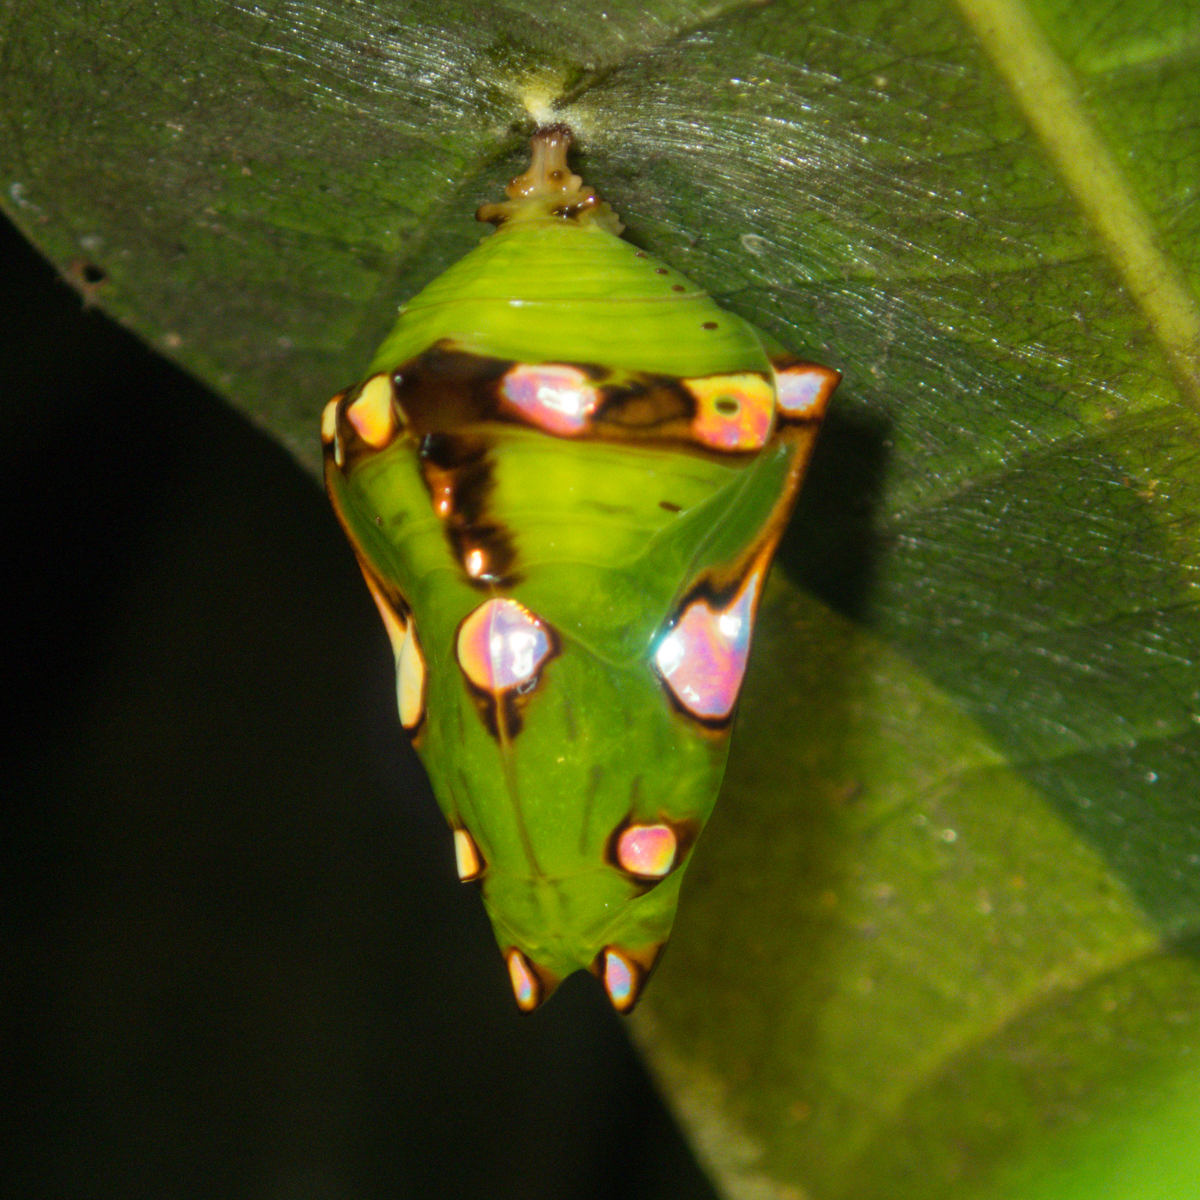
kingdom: Animalia
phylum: Arthropoda
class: Insecta
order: Lepidoptera
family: Nymphalidae
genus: Euthalia
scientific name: Euthalia anosia
